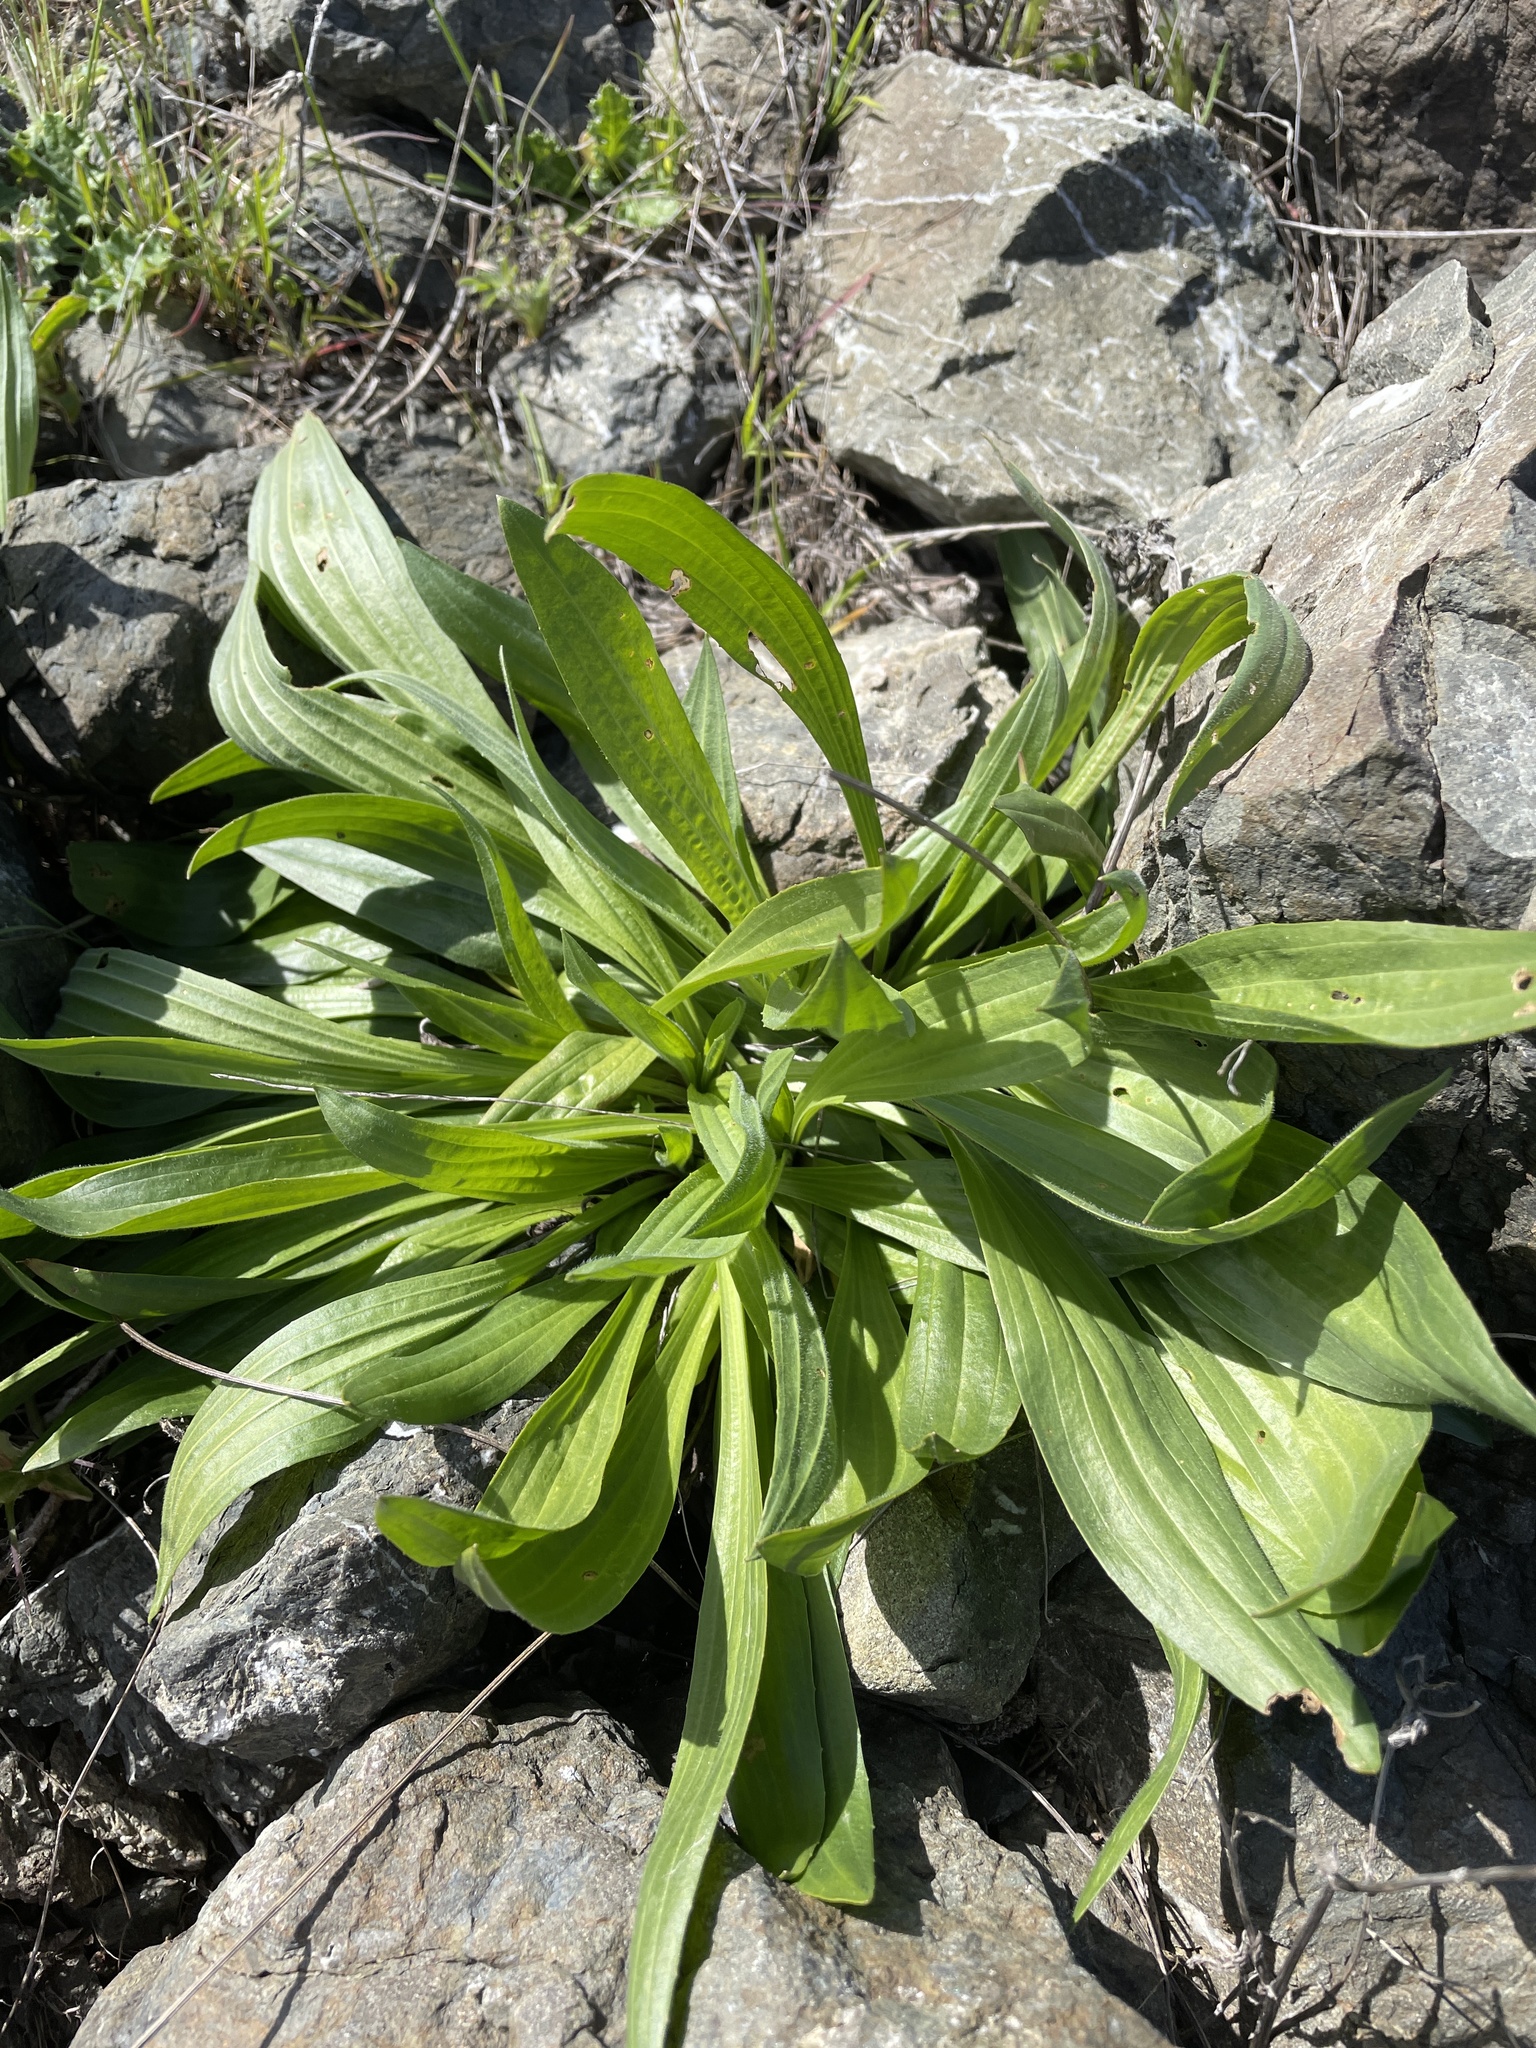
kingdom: Plantae
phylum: Tracheophyta
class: Magnoliopsida
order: Lamiales
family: Plantaginaceae
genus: Plantago
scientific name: Plantago lanceolata
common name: Ribwort plantain
